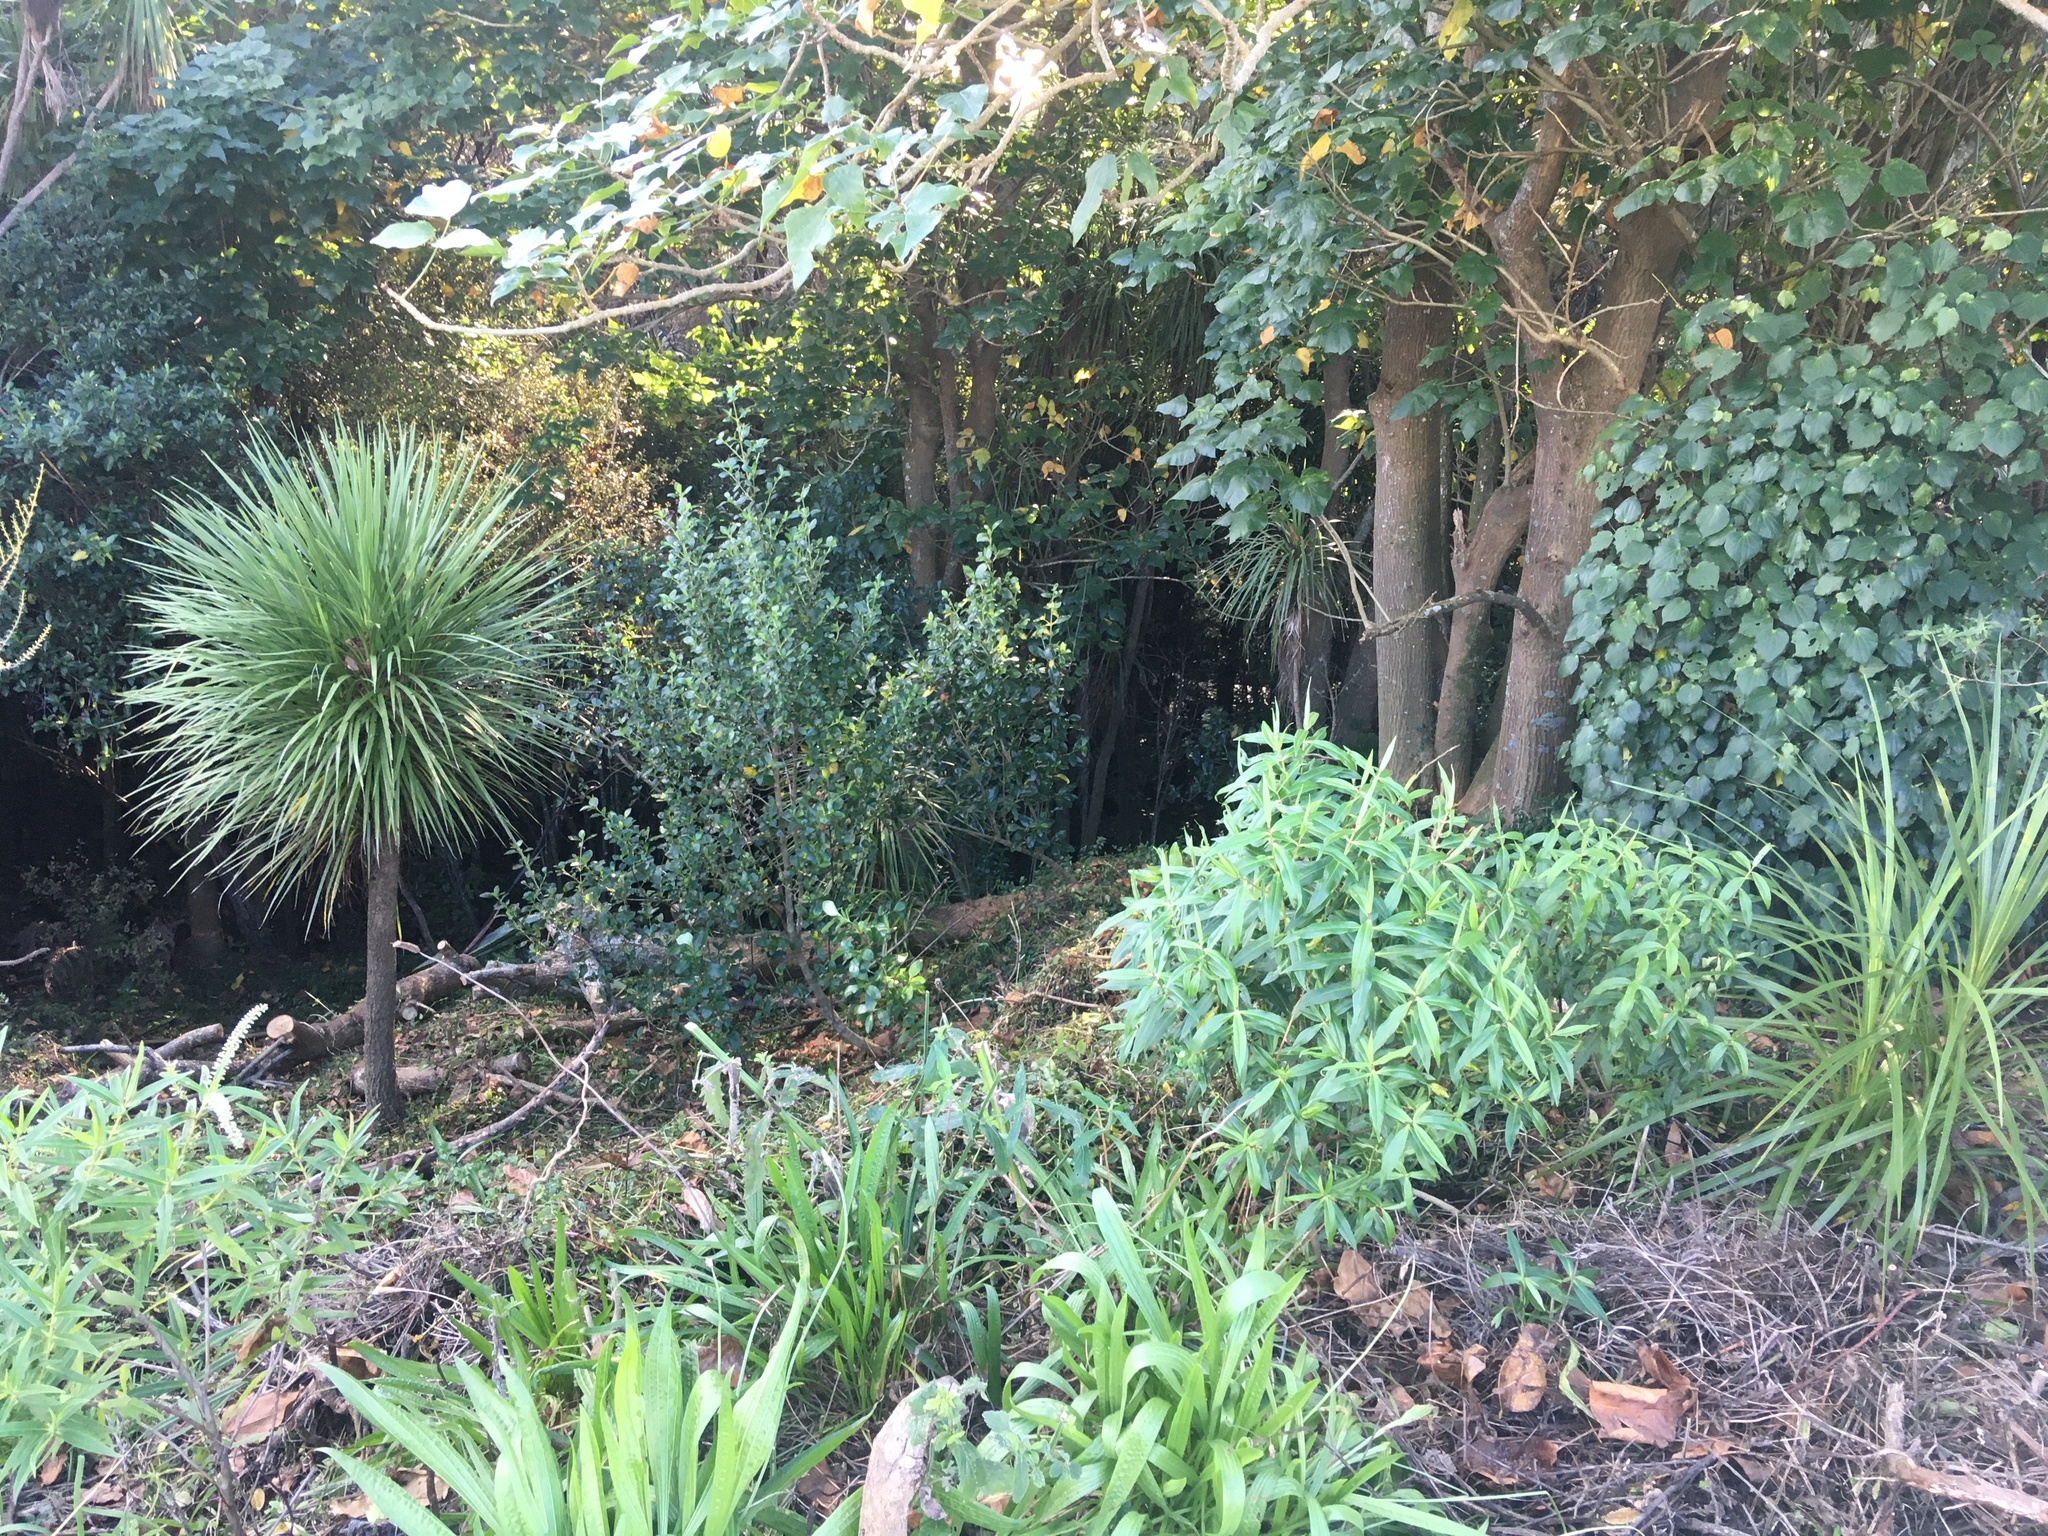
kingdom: Plantae
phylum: Tracheophyta
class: Magnoliopsida
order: Lamiales
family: Plantaginaceae
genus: Veronica
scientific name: Veronica stricta
